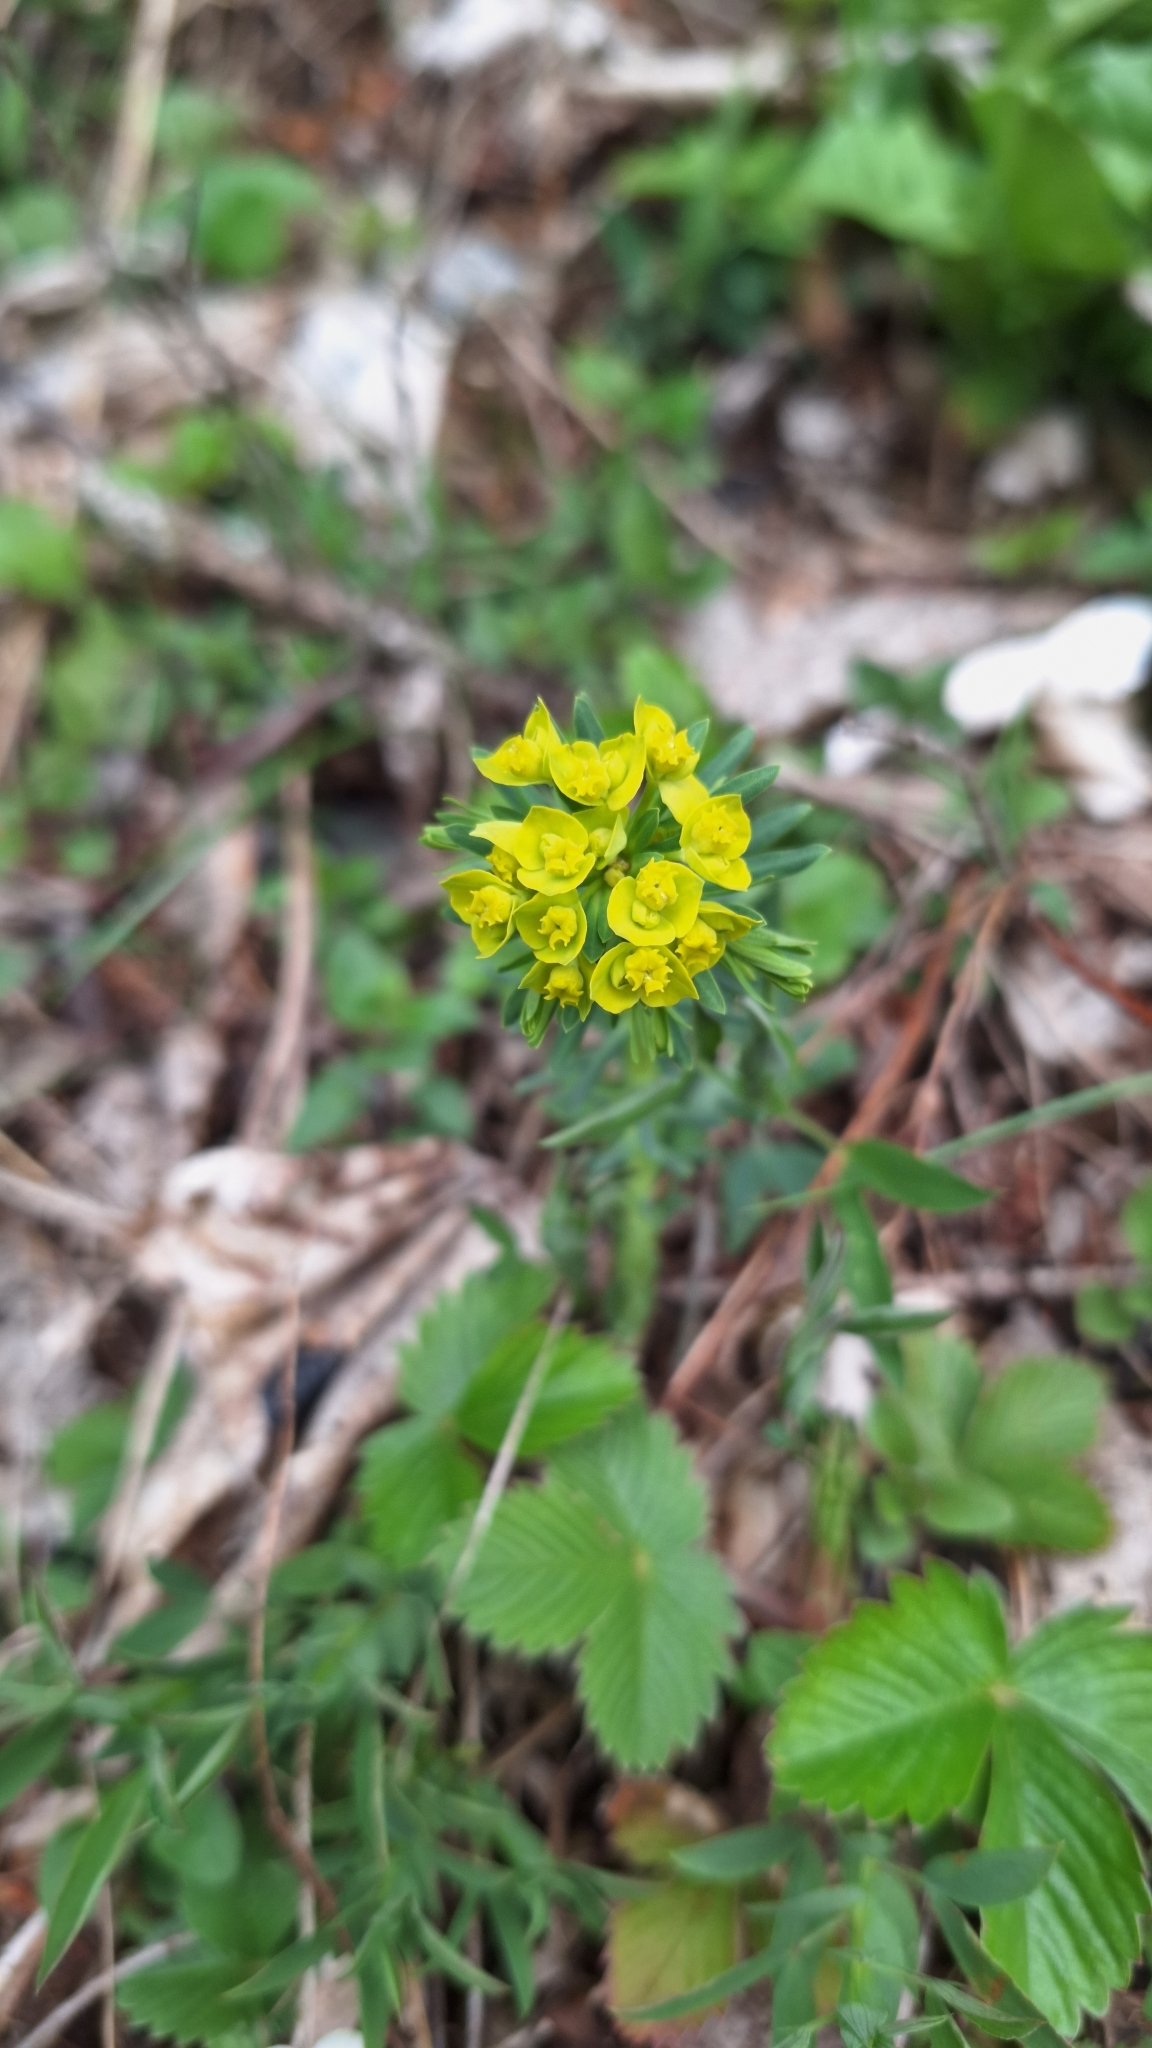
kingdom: Plantae
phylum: Tracheophyta
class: Magnoliopsida
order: Malpighiales
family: Euphorbiaceae
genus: Euphorbia
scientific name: Euphorbia cyparissias
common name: Cypress spurge
